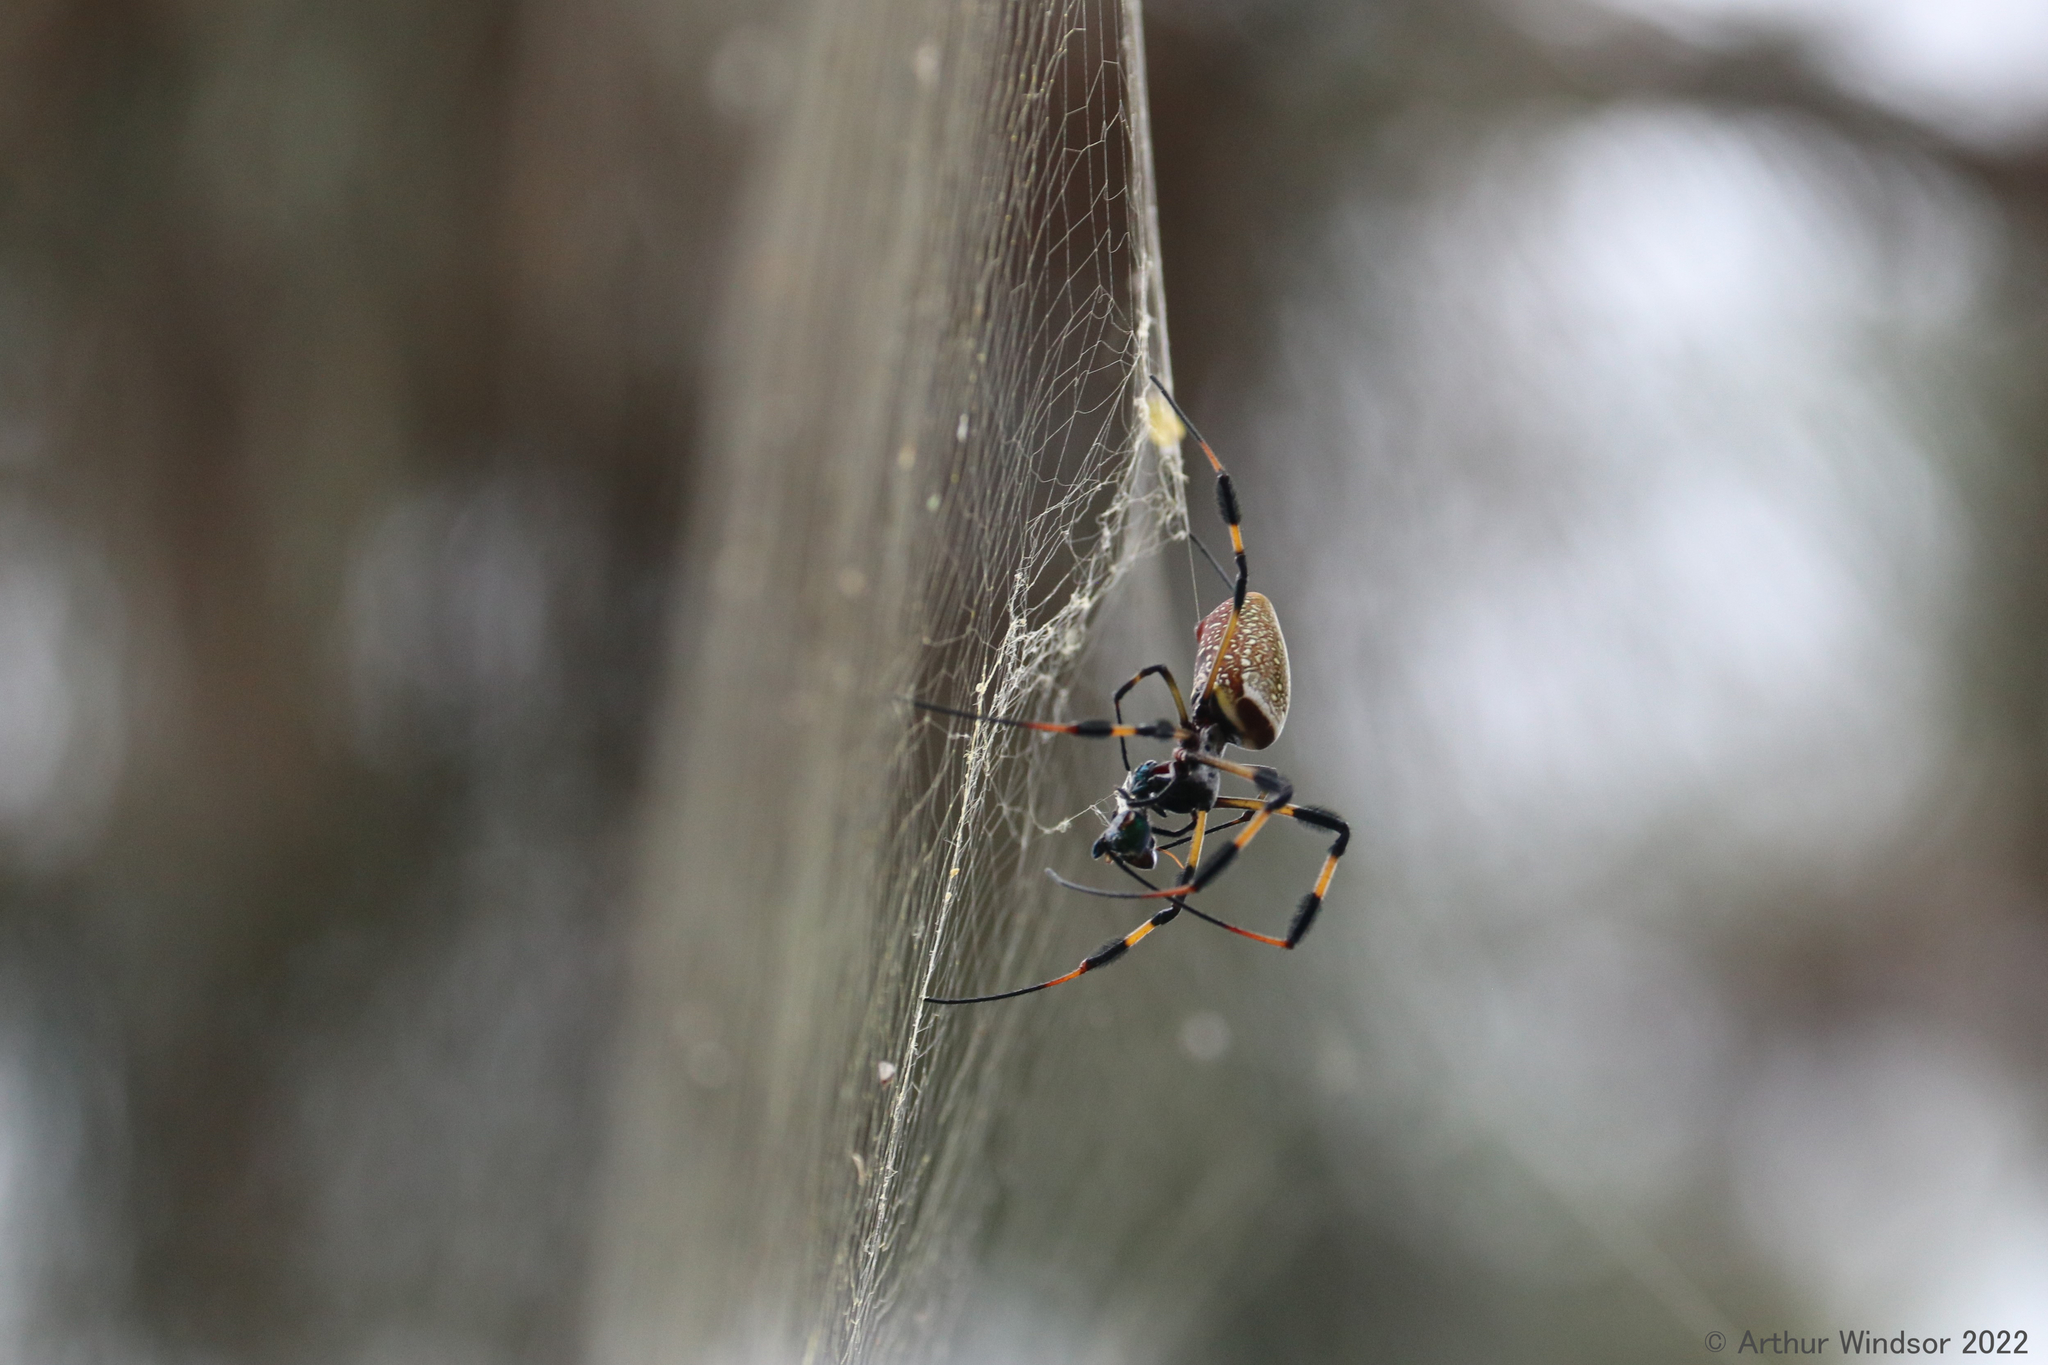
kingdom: Animalia
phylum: Arthropoda
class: Arachnida
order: Araneae
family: Araneidae
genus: Trichonephila
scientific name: Trichonephila clavipes
